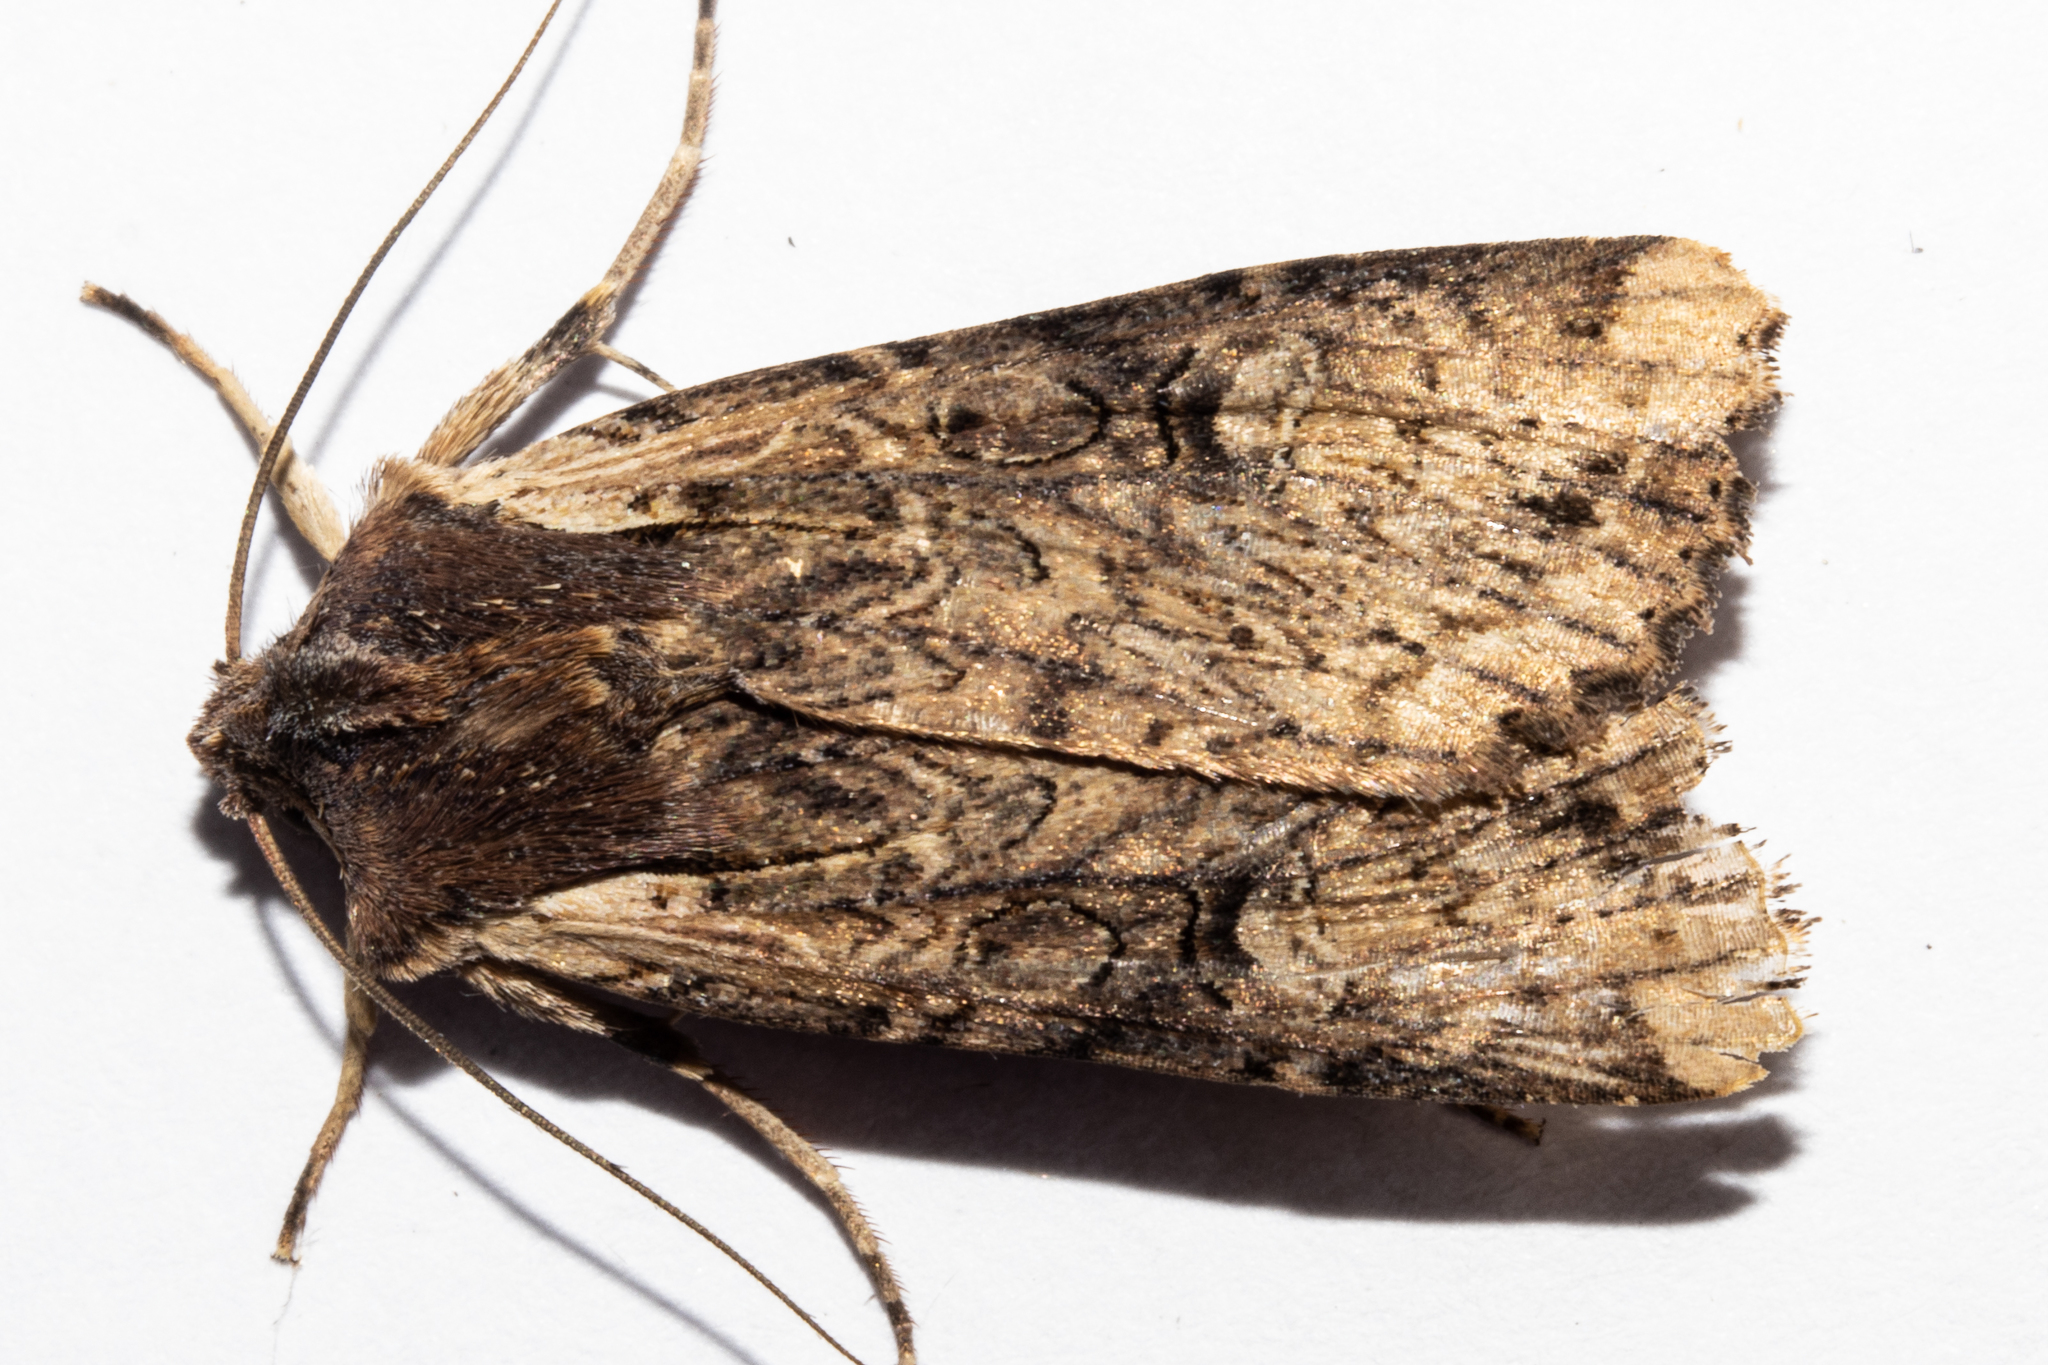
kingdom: Animalia
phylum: Arthropoda
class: Insecta
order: Lepidoptera
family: Noctuidae
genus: Ichneutica
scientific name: Ichneutica omoplaca
